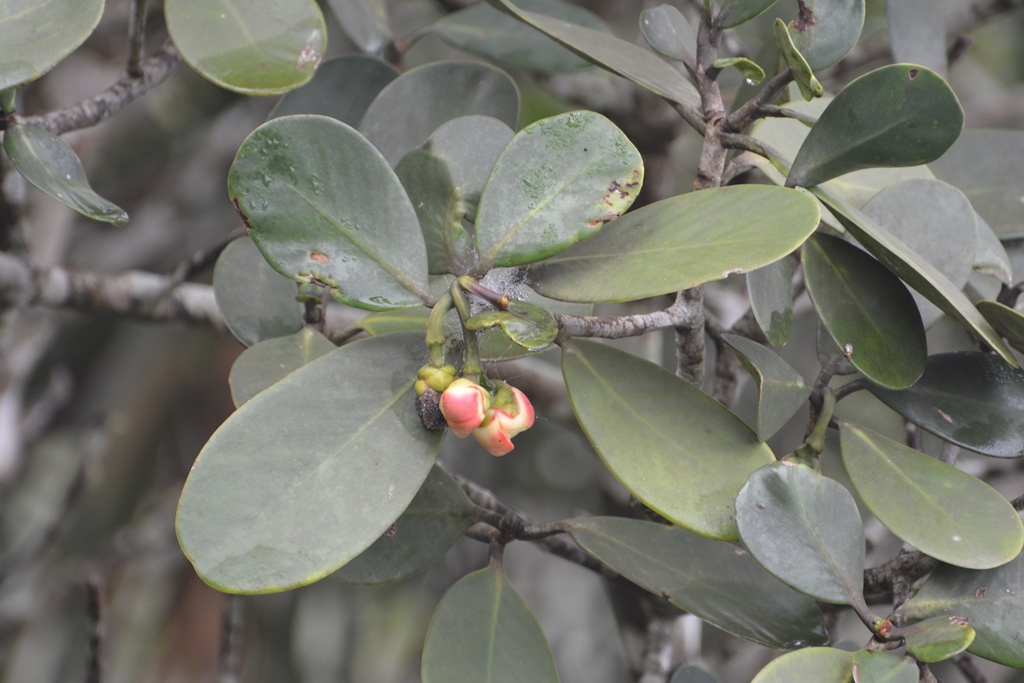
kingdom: Plantae
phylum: Tracheophyta
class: Magnoliopsida
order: Malpighiales
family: Clusiaceae
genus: Clusia
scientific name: Clusia tetratrianthera
